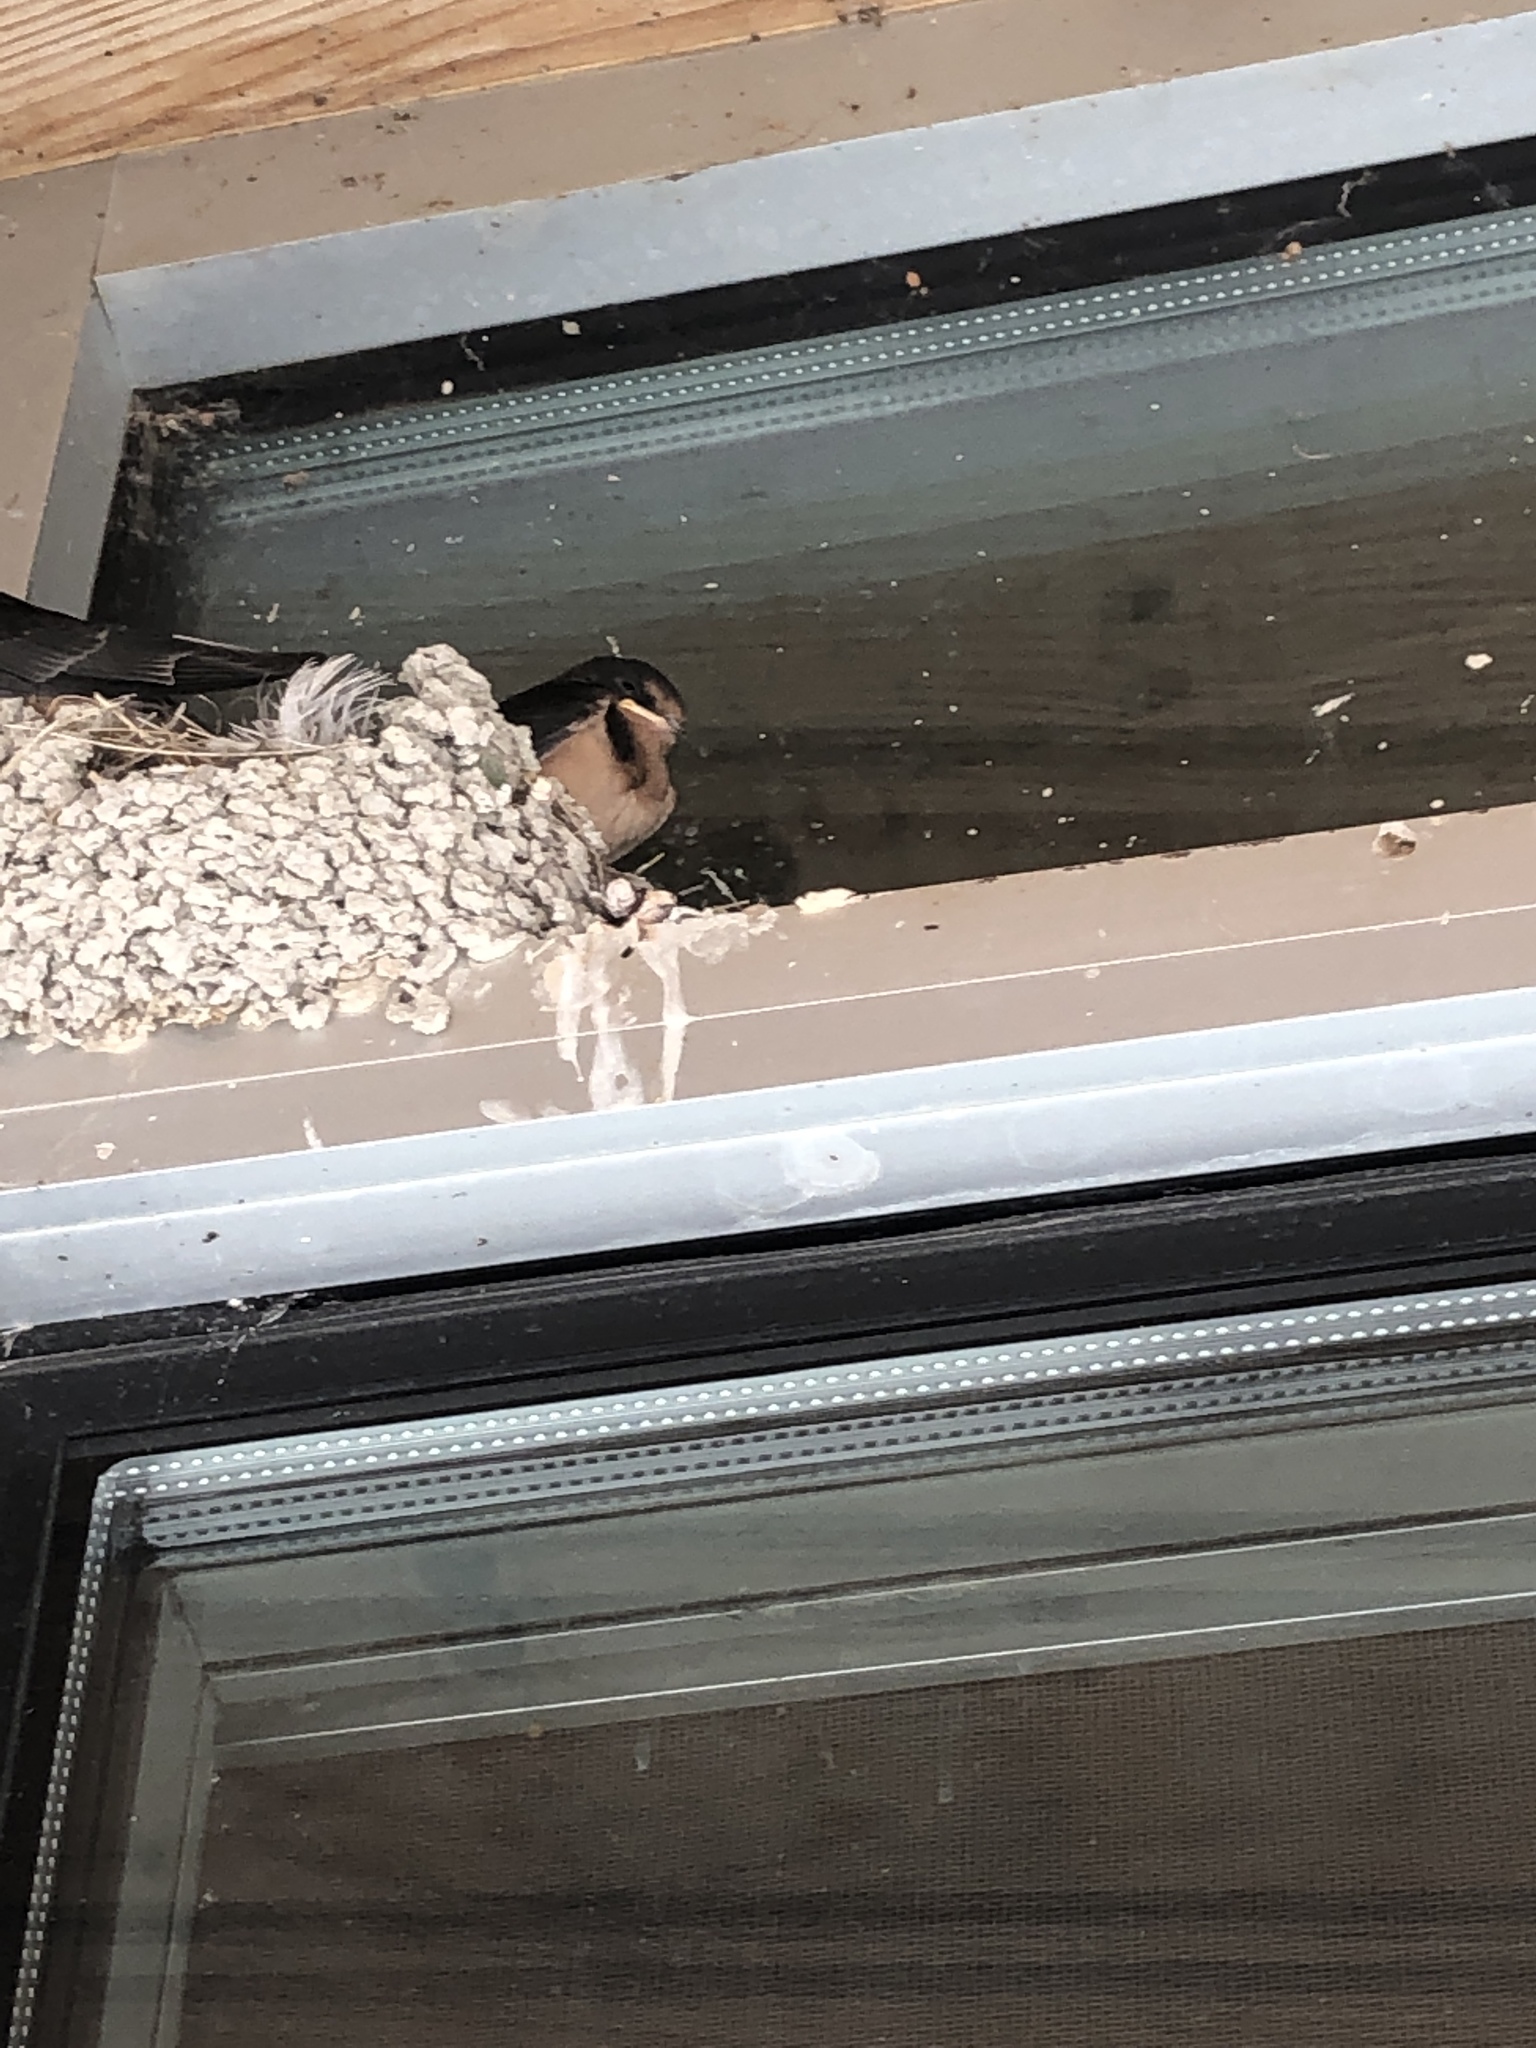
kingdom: Animalia
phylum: Chordata
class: Aves
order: Passeriformes
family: Hirundinidae
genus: Hirundo
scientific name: Hirundo rustica
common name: Barn swallow
